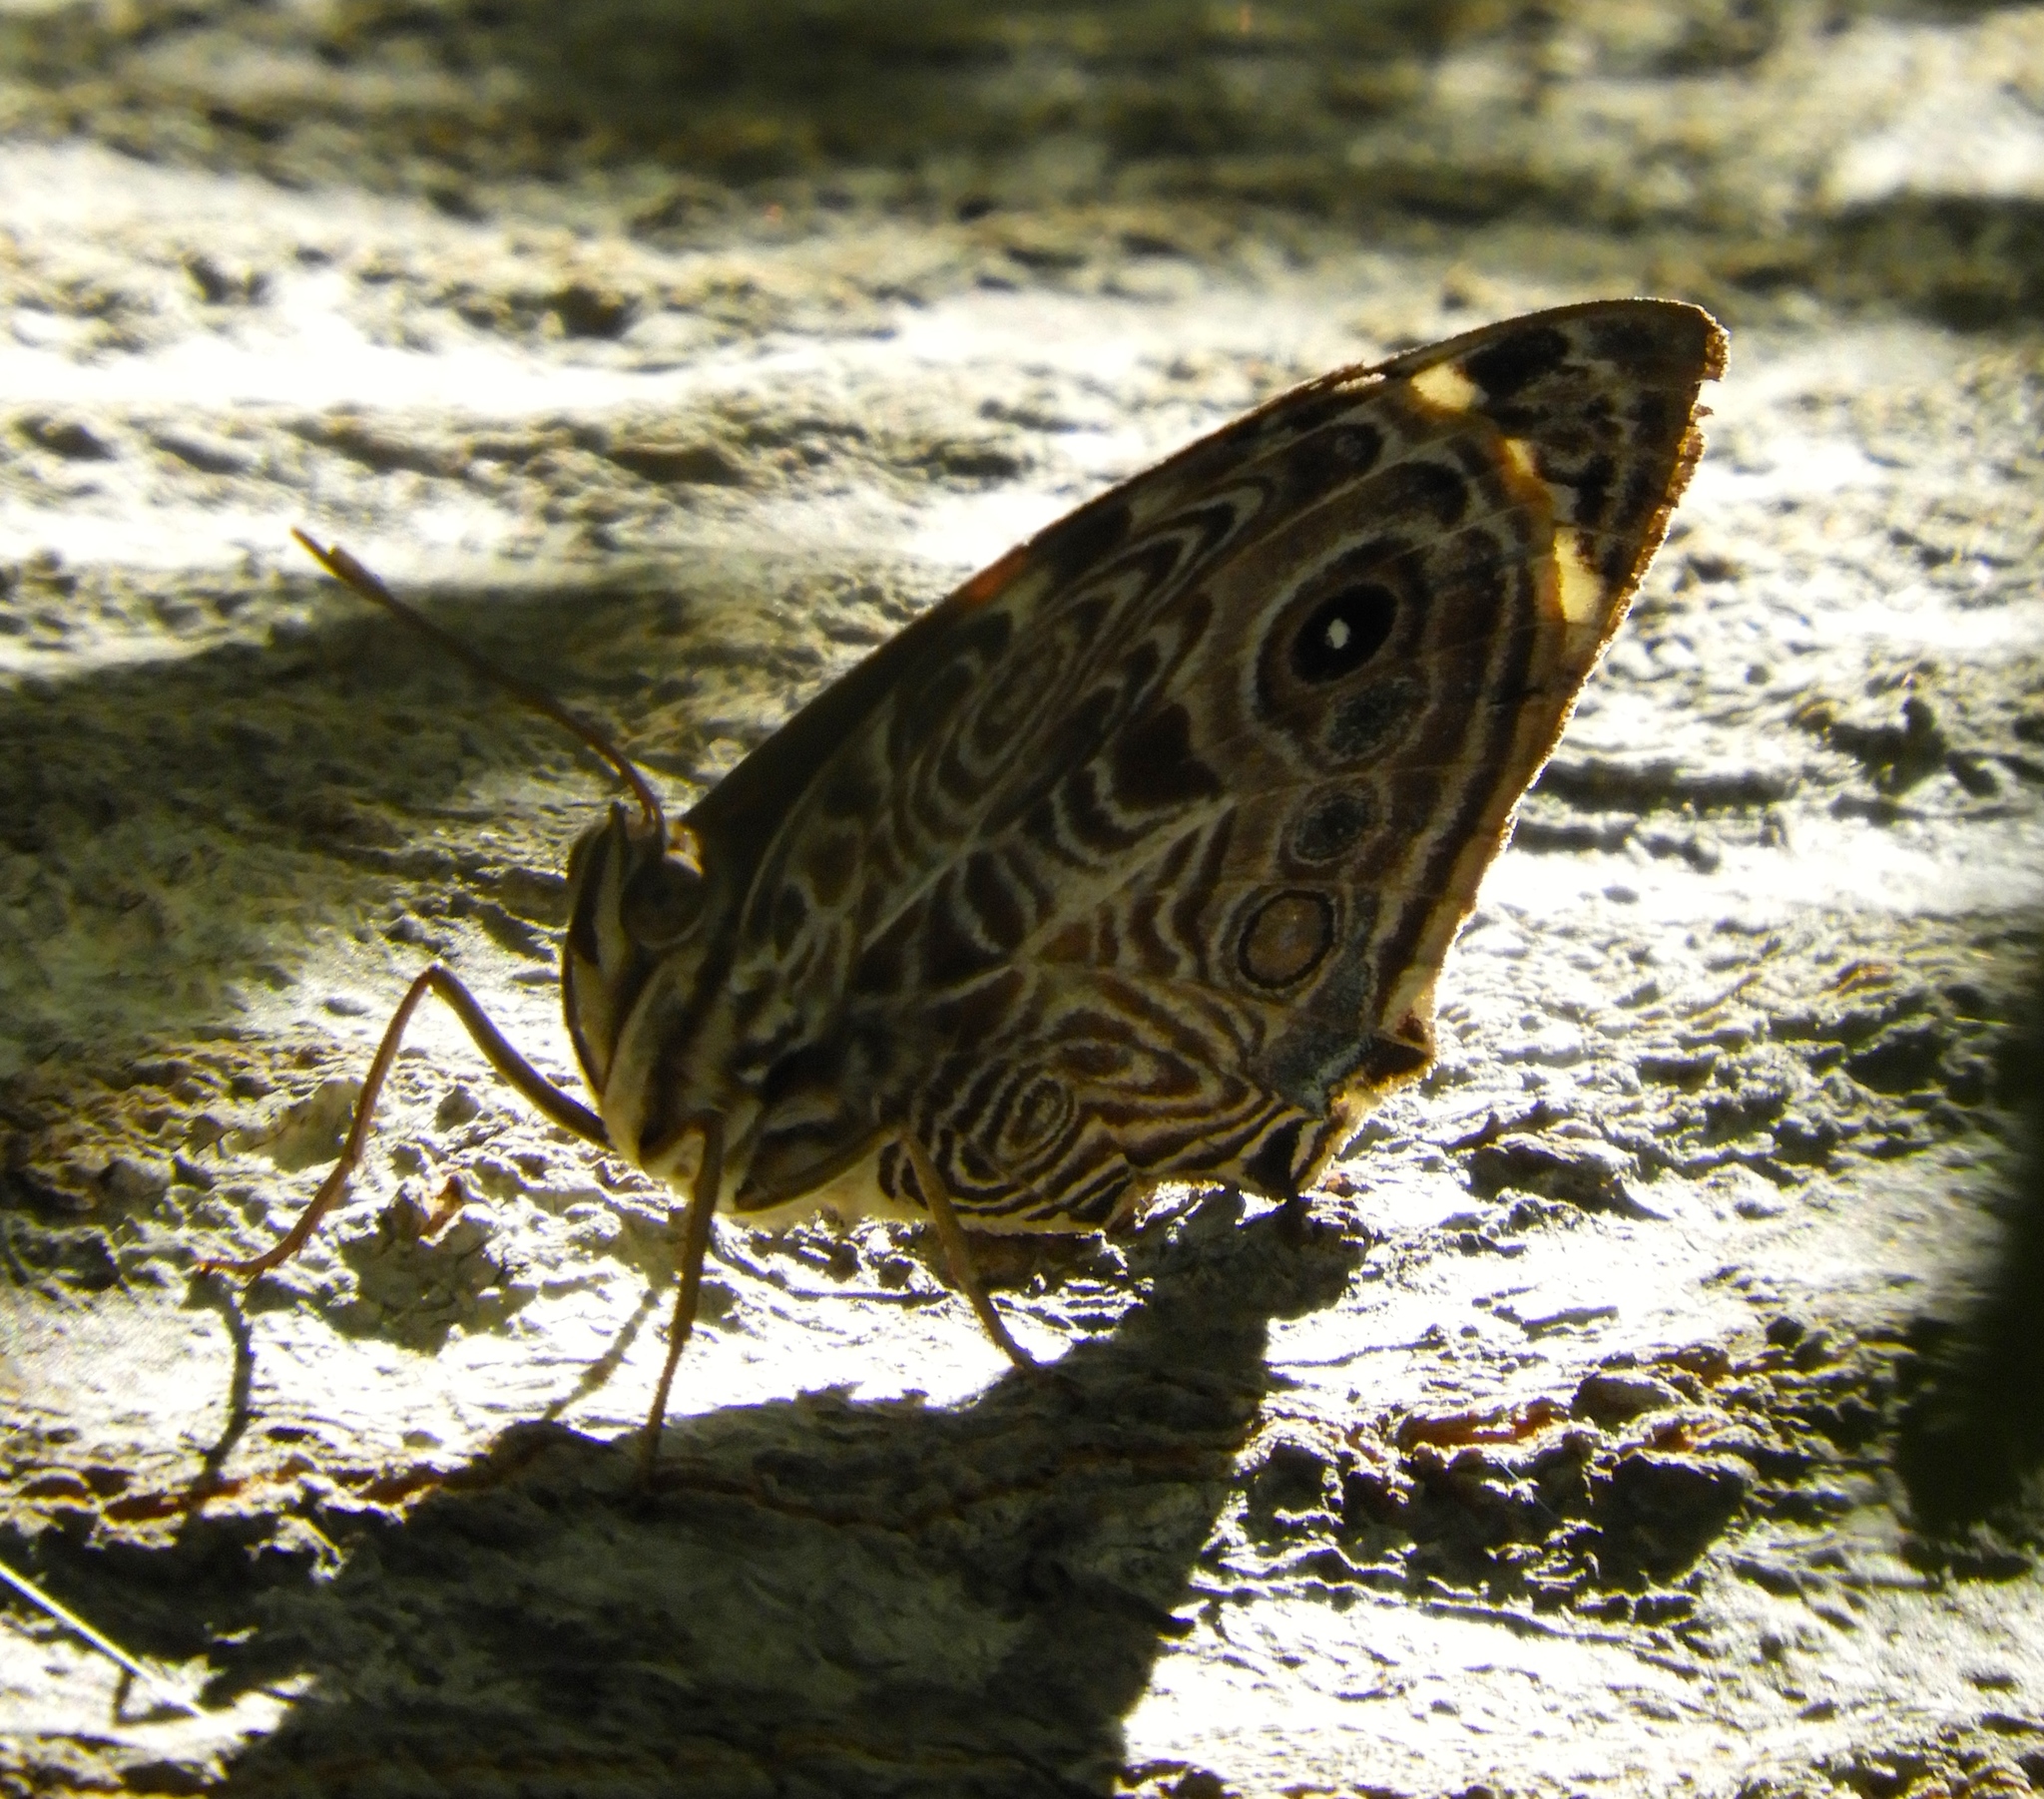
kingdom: Animalia
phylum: Arthropoda
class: Insecta
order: Lepidoptera
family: Nymphalidae
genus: Smyrna
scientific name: Smyrna blomfildia
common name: Blomfild's beauty
